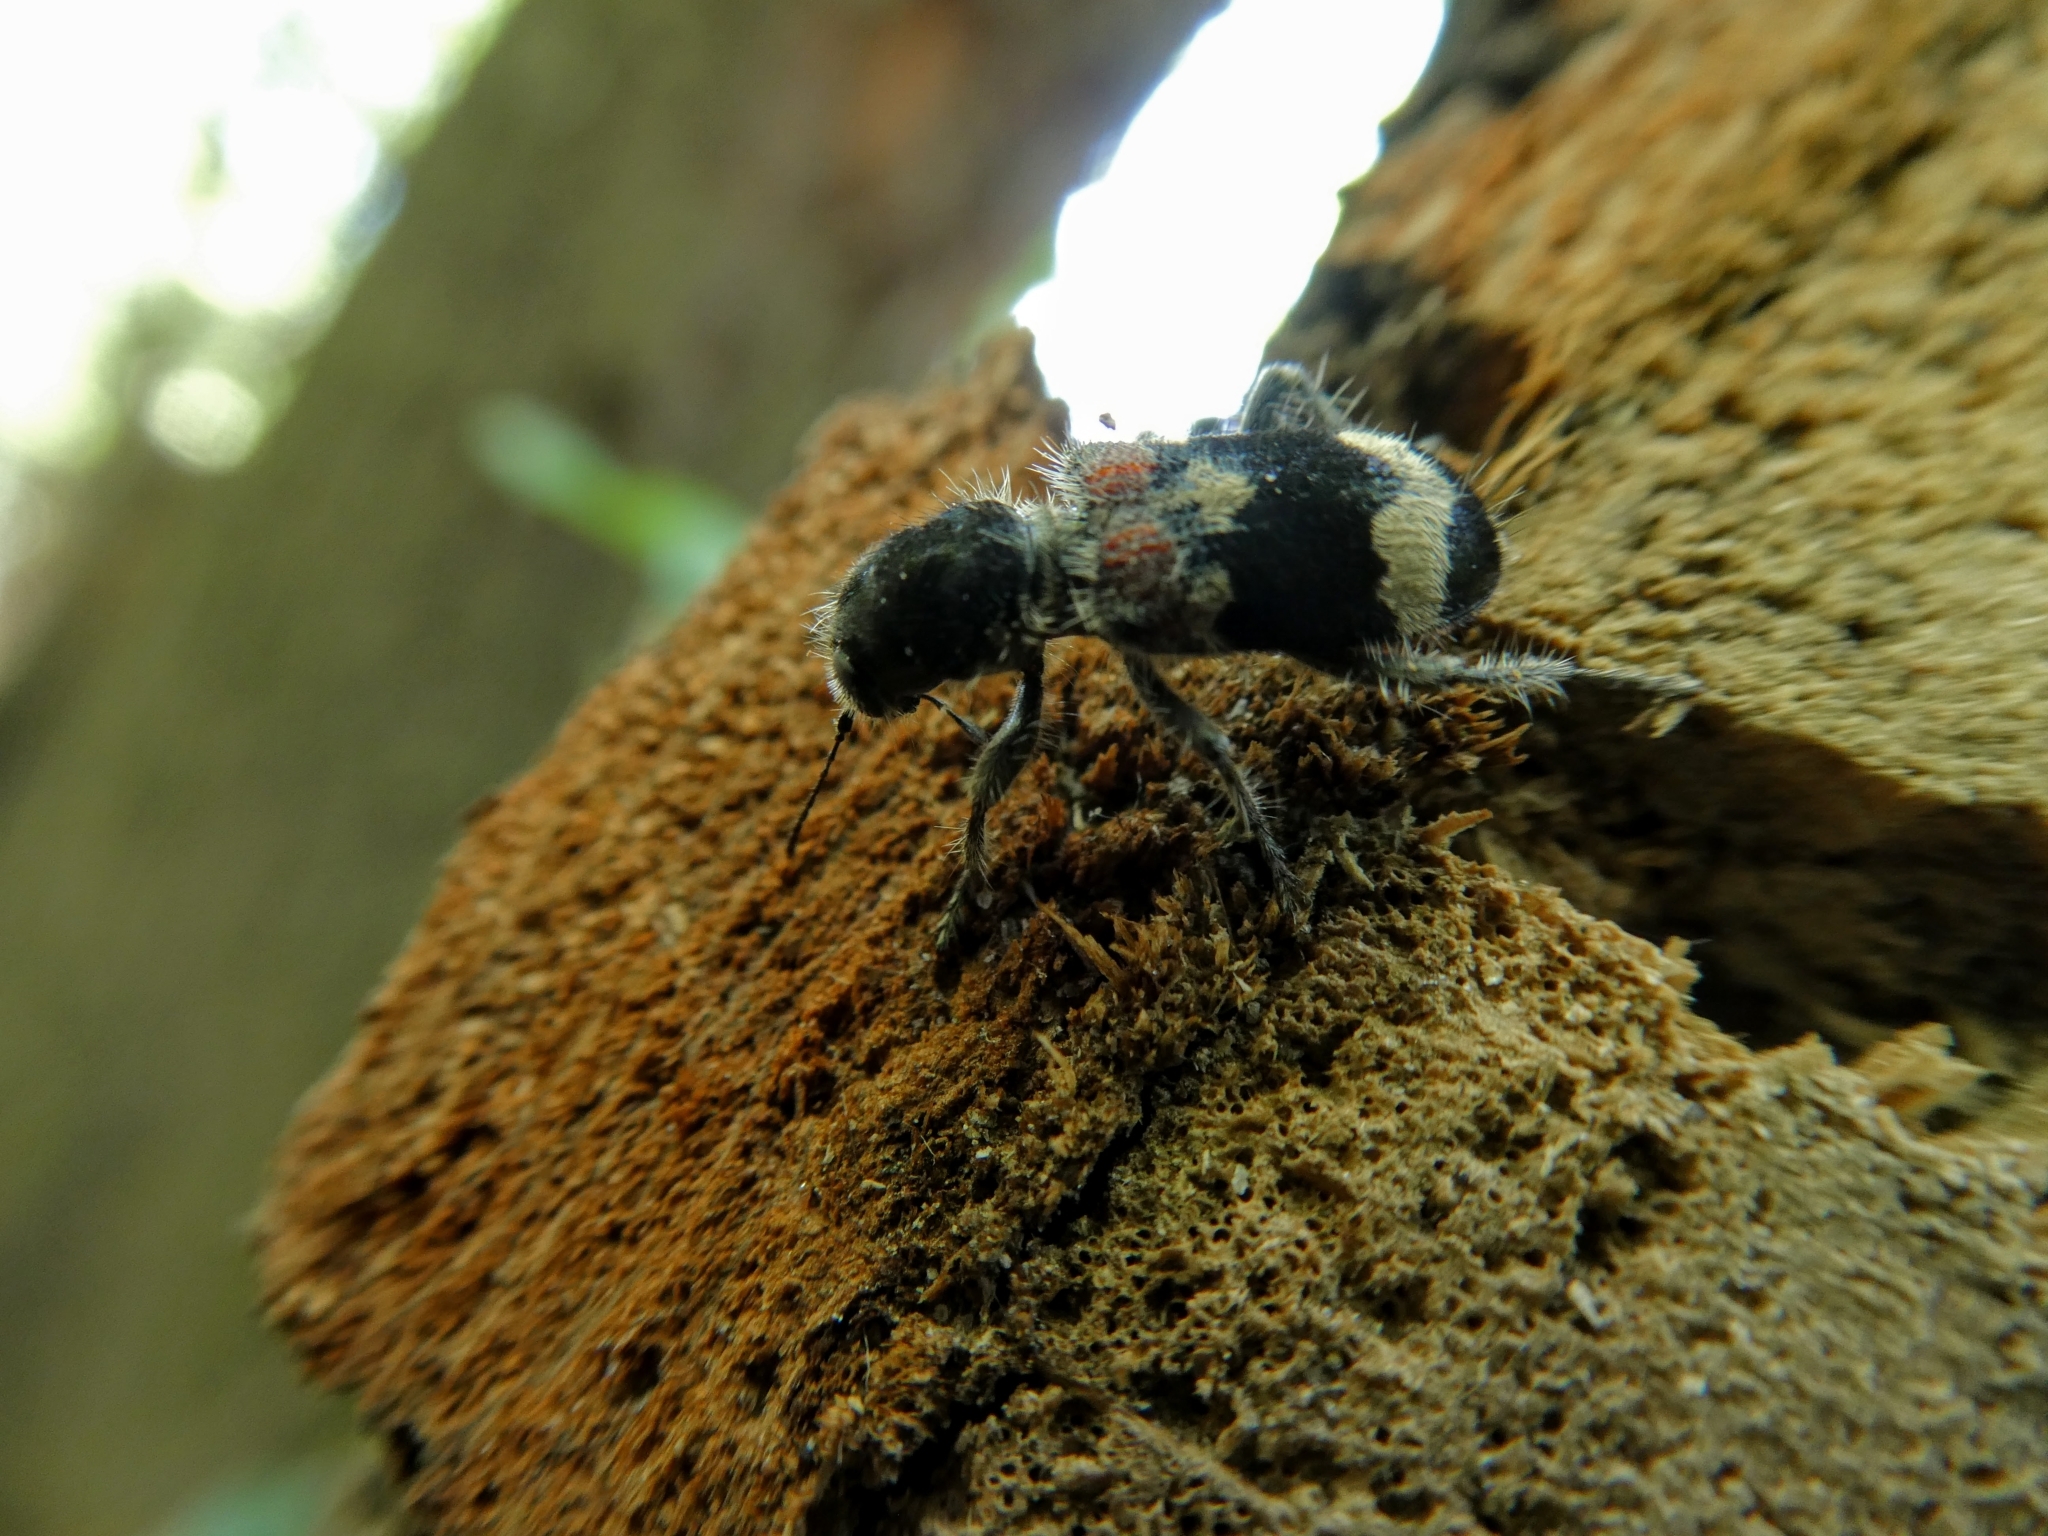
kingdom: Animalia
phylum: Arthropoda
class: Insecta
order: Coleoptera
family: Cleridae
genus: Clerus
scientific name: Clerus mutillarius
